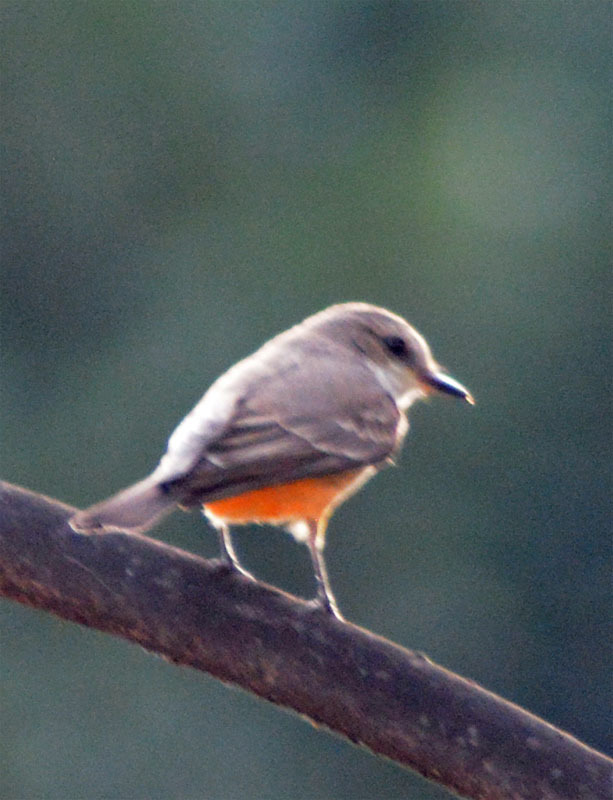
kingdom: Animalia
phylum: Chordata
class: Aves
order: Passeriformes
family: Tyrannidae
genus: Pyrocephalus
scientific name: Pyrocephalus rubinus
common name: Vermilion flycatcher
